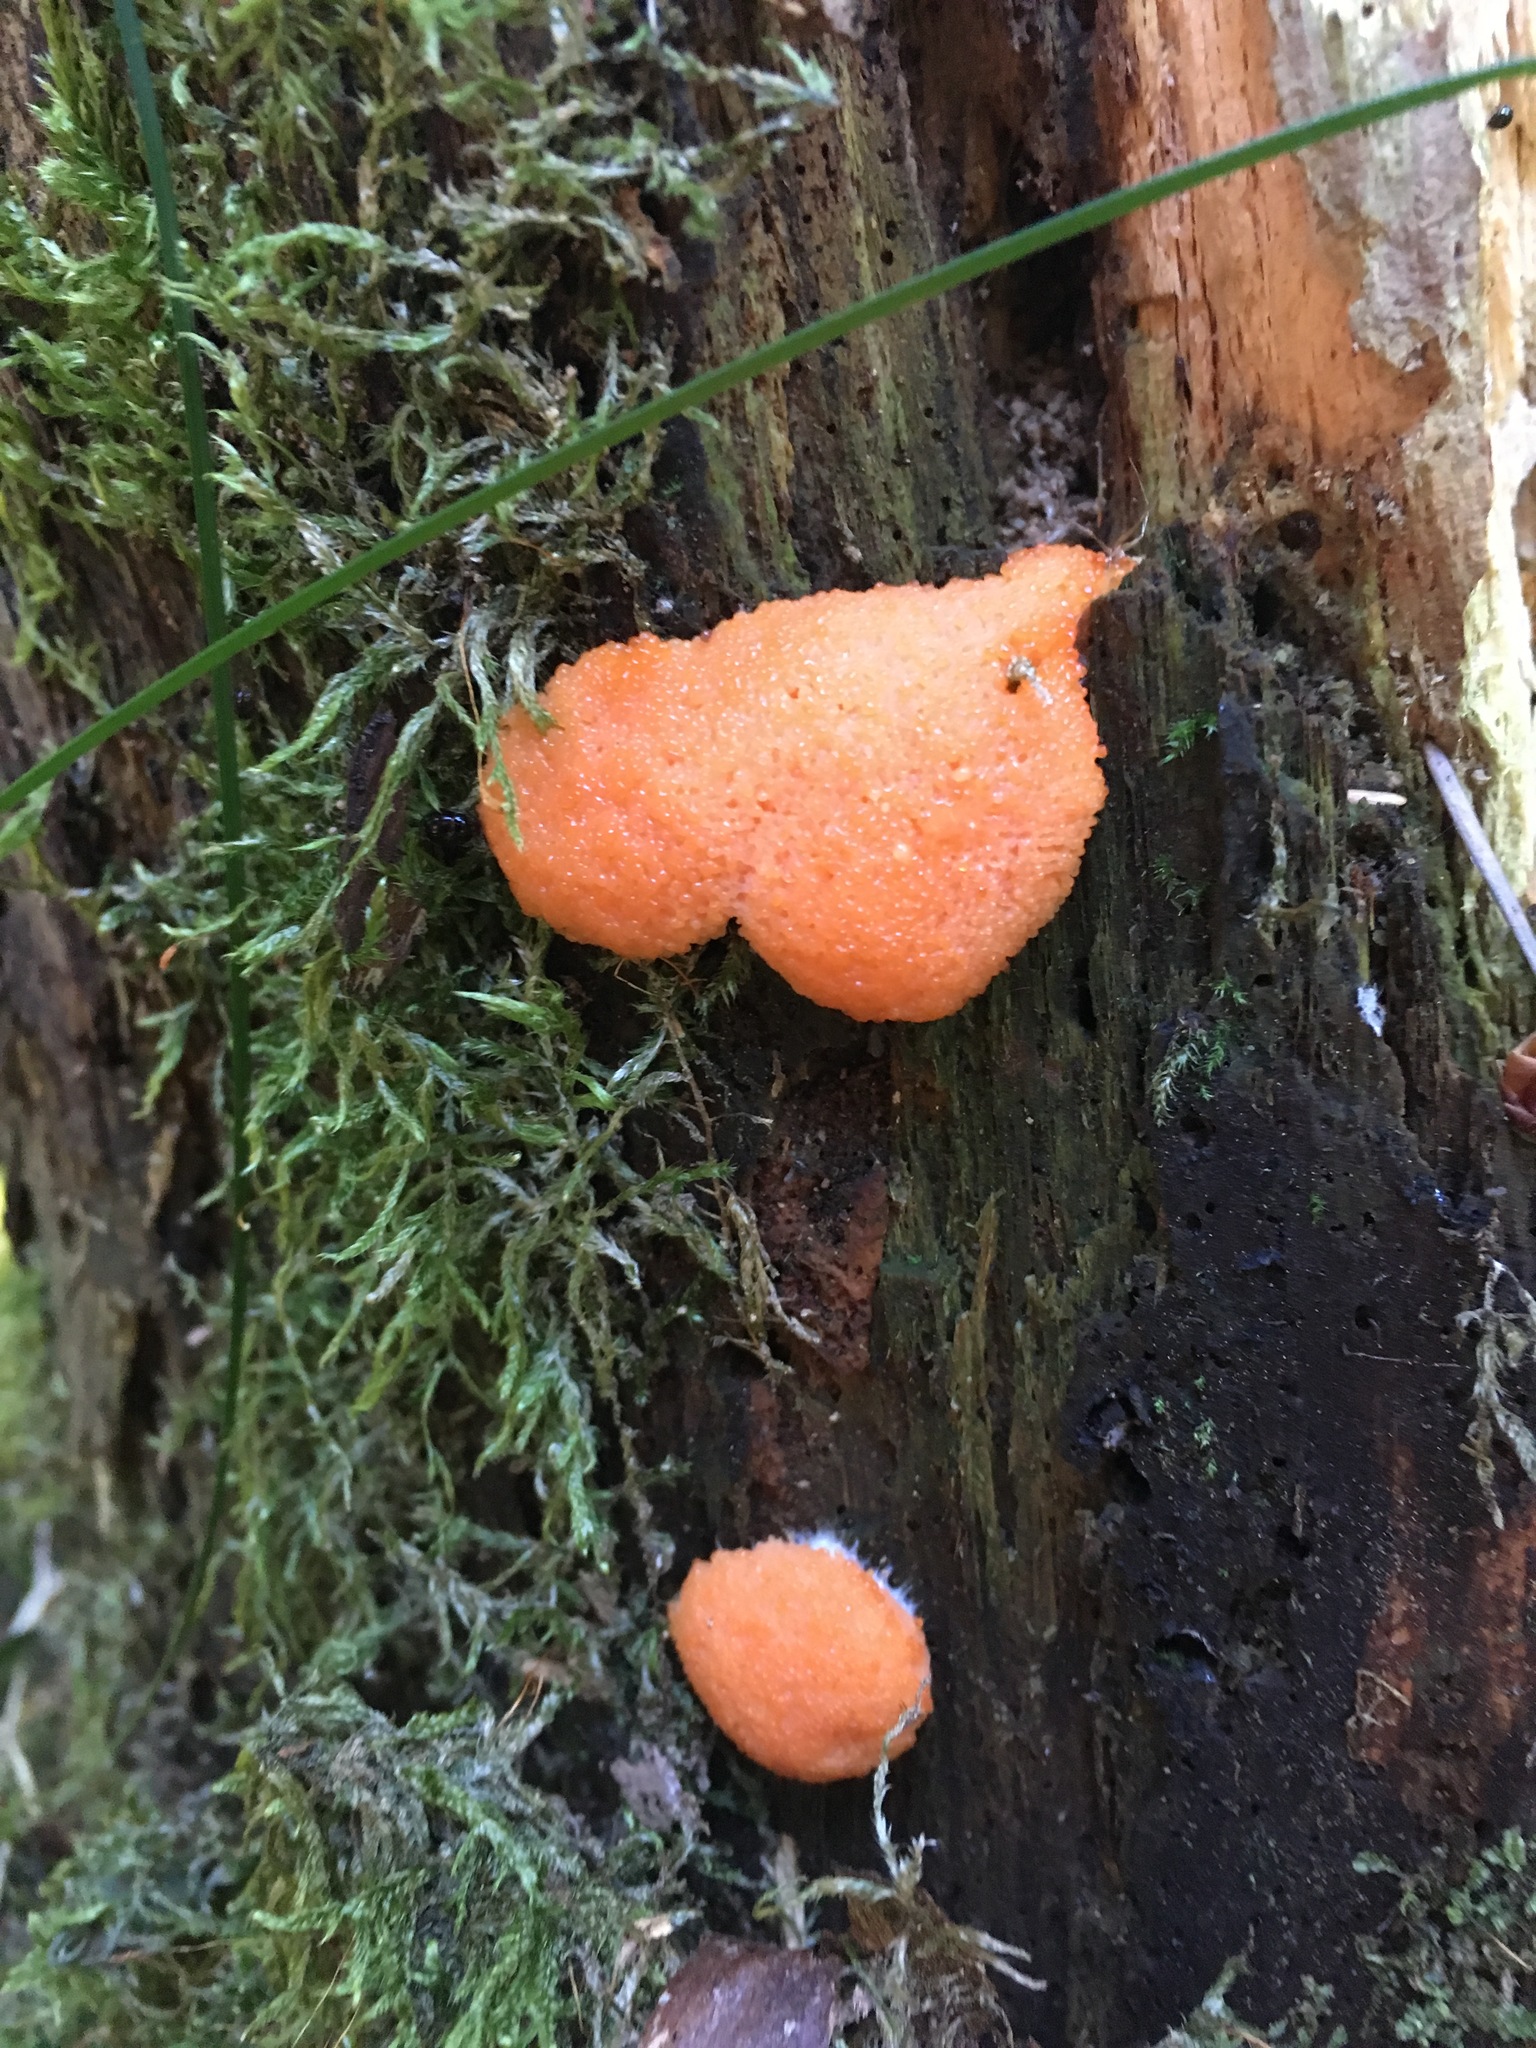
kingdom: Protozoa
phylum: Mycetozoa
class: Myxomycetes
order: Cribrariales
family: Tubiferaceae
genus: Tubifera
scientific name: Tubifera ferruginosa
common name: Red raspberry slime mold
